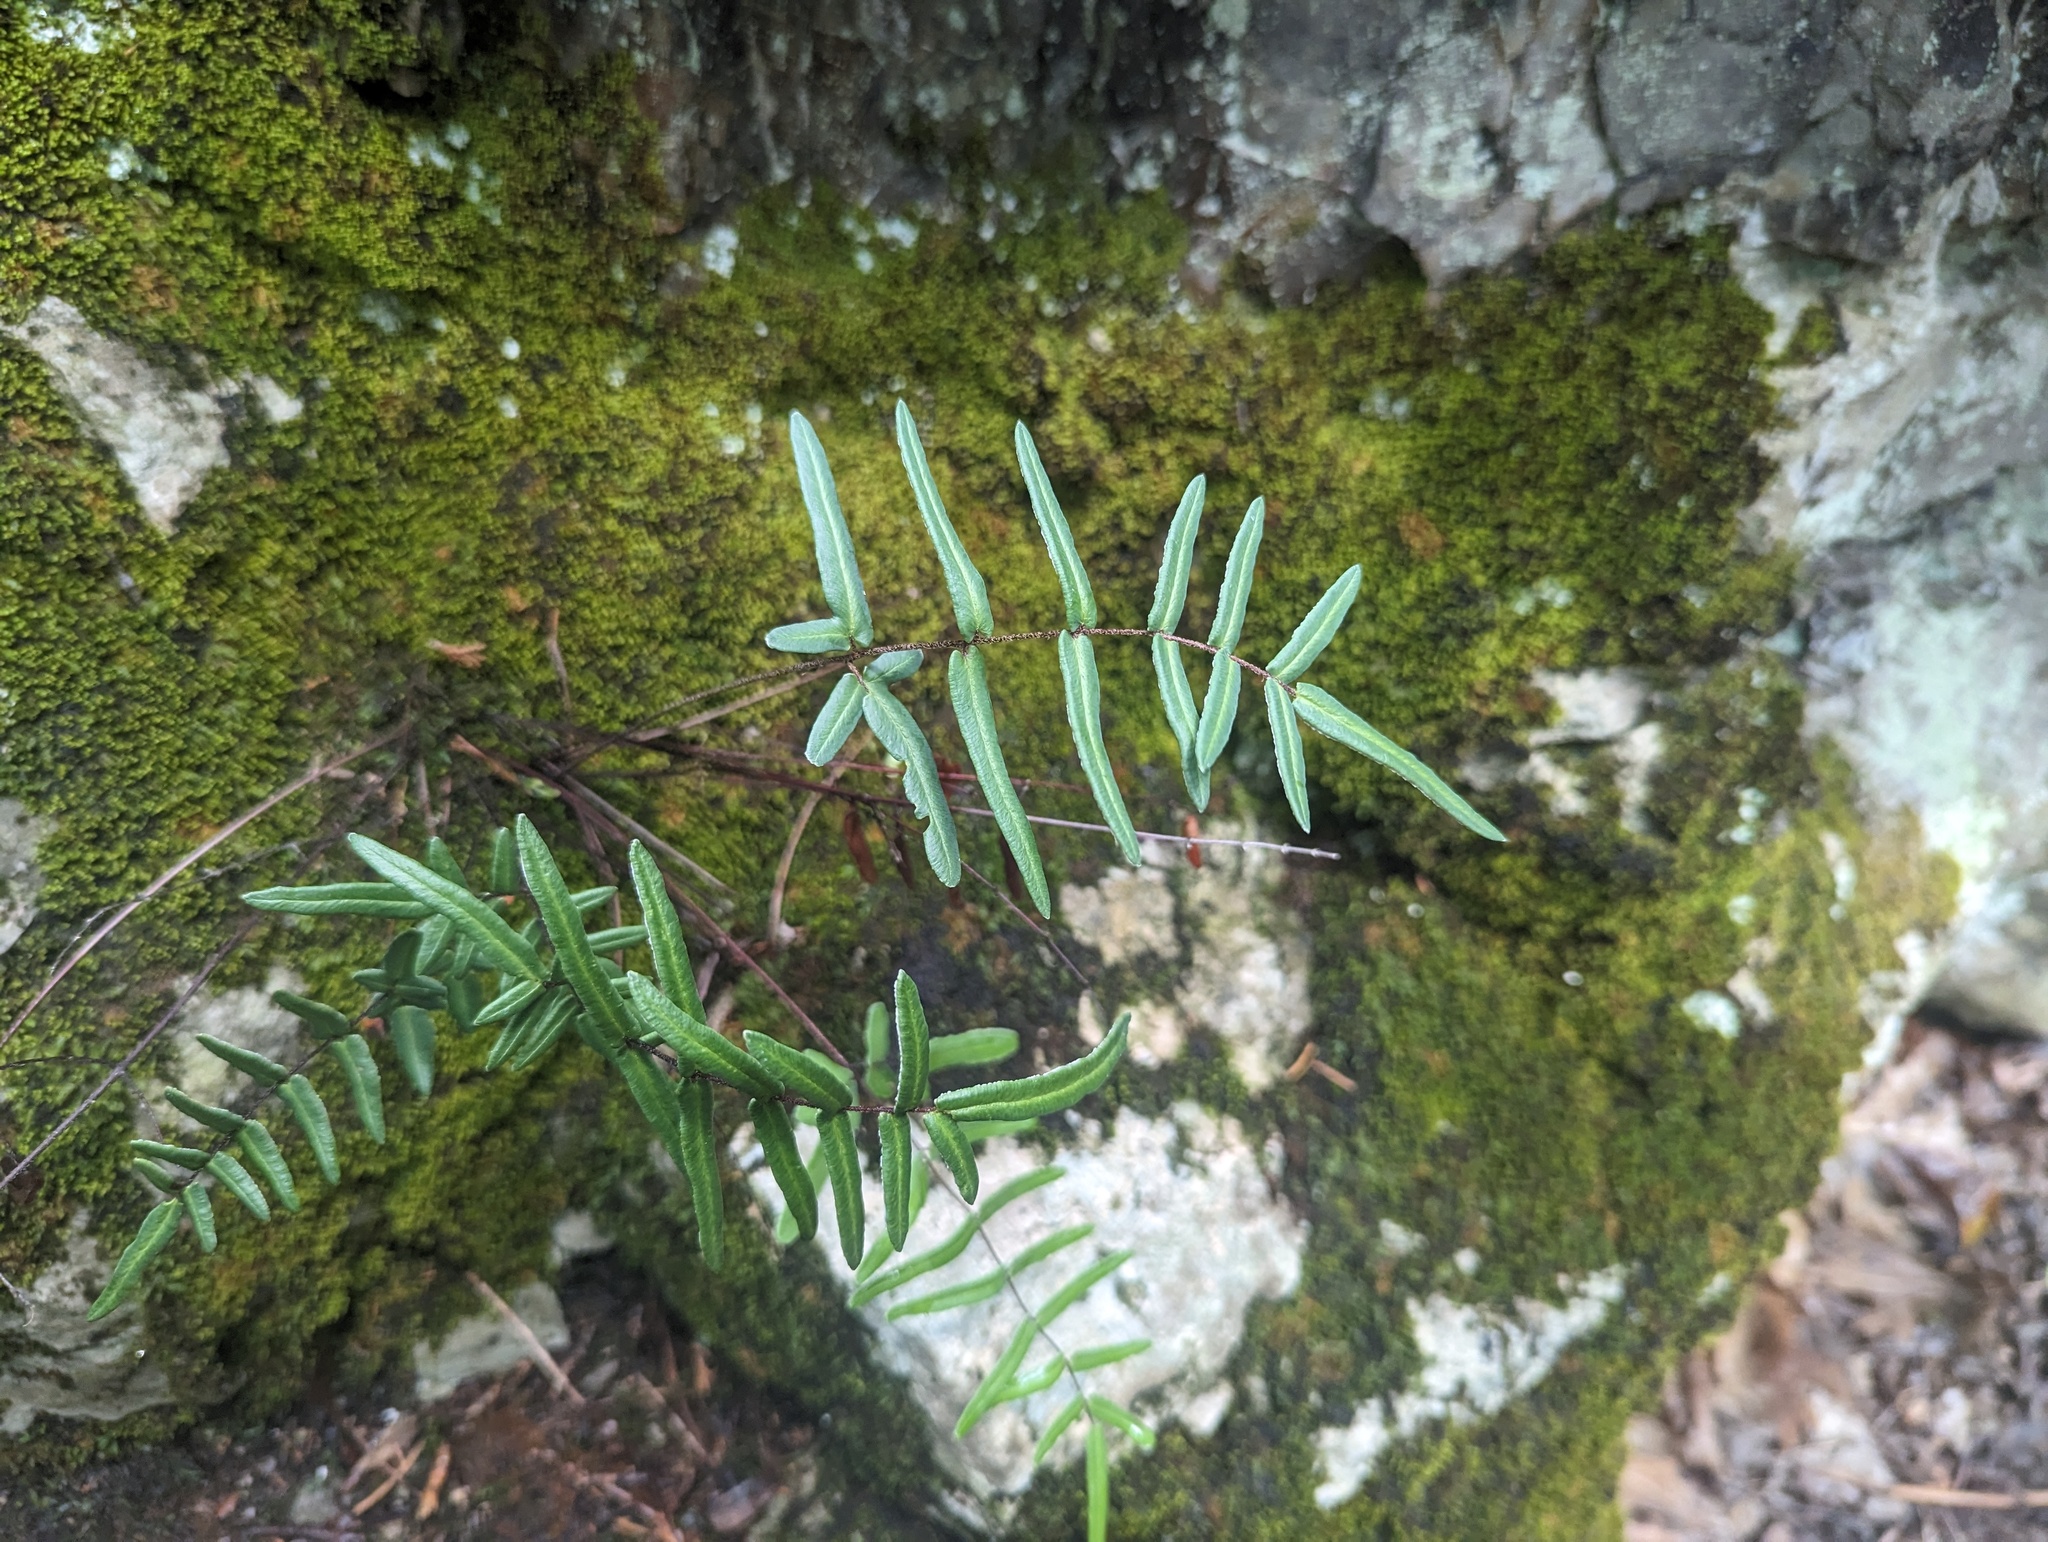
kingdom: Plantae
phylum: Tracheophyta
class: Polypodiopsida
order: Polypodiales
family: Pteridaceae
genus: Pellaea
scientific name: Pellaea atropurpurea
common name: Hairy cliffbrake
